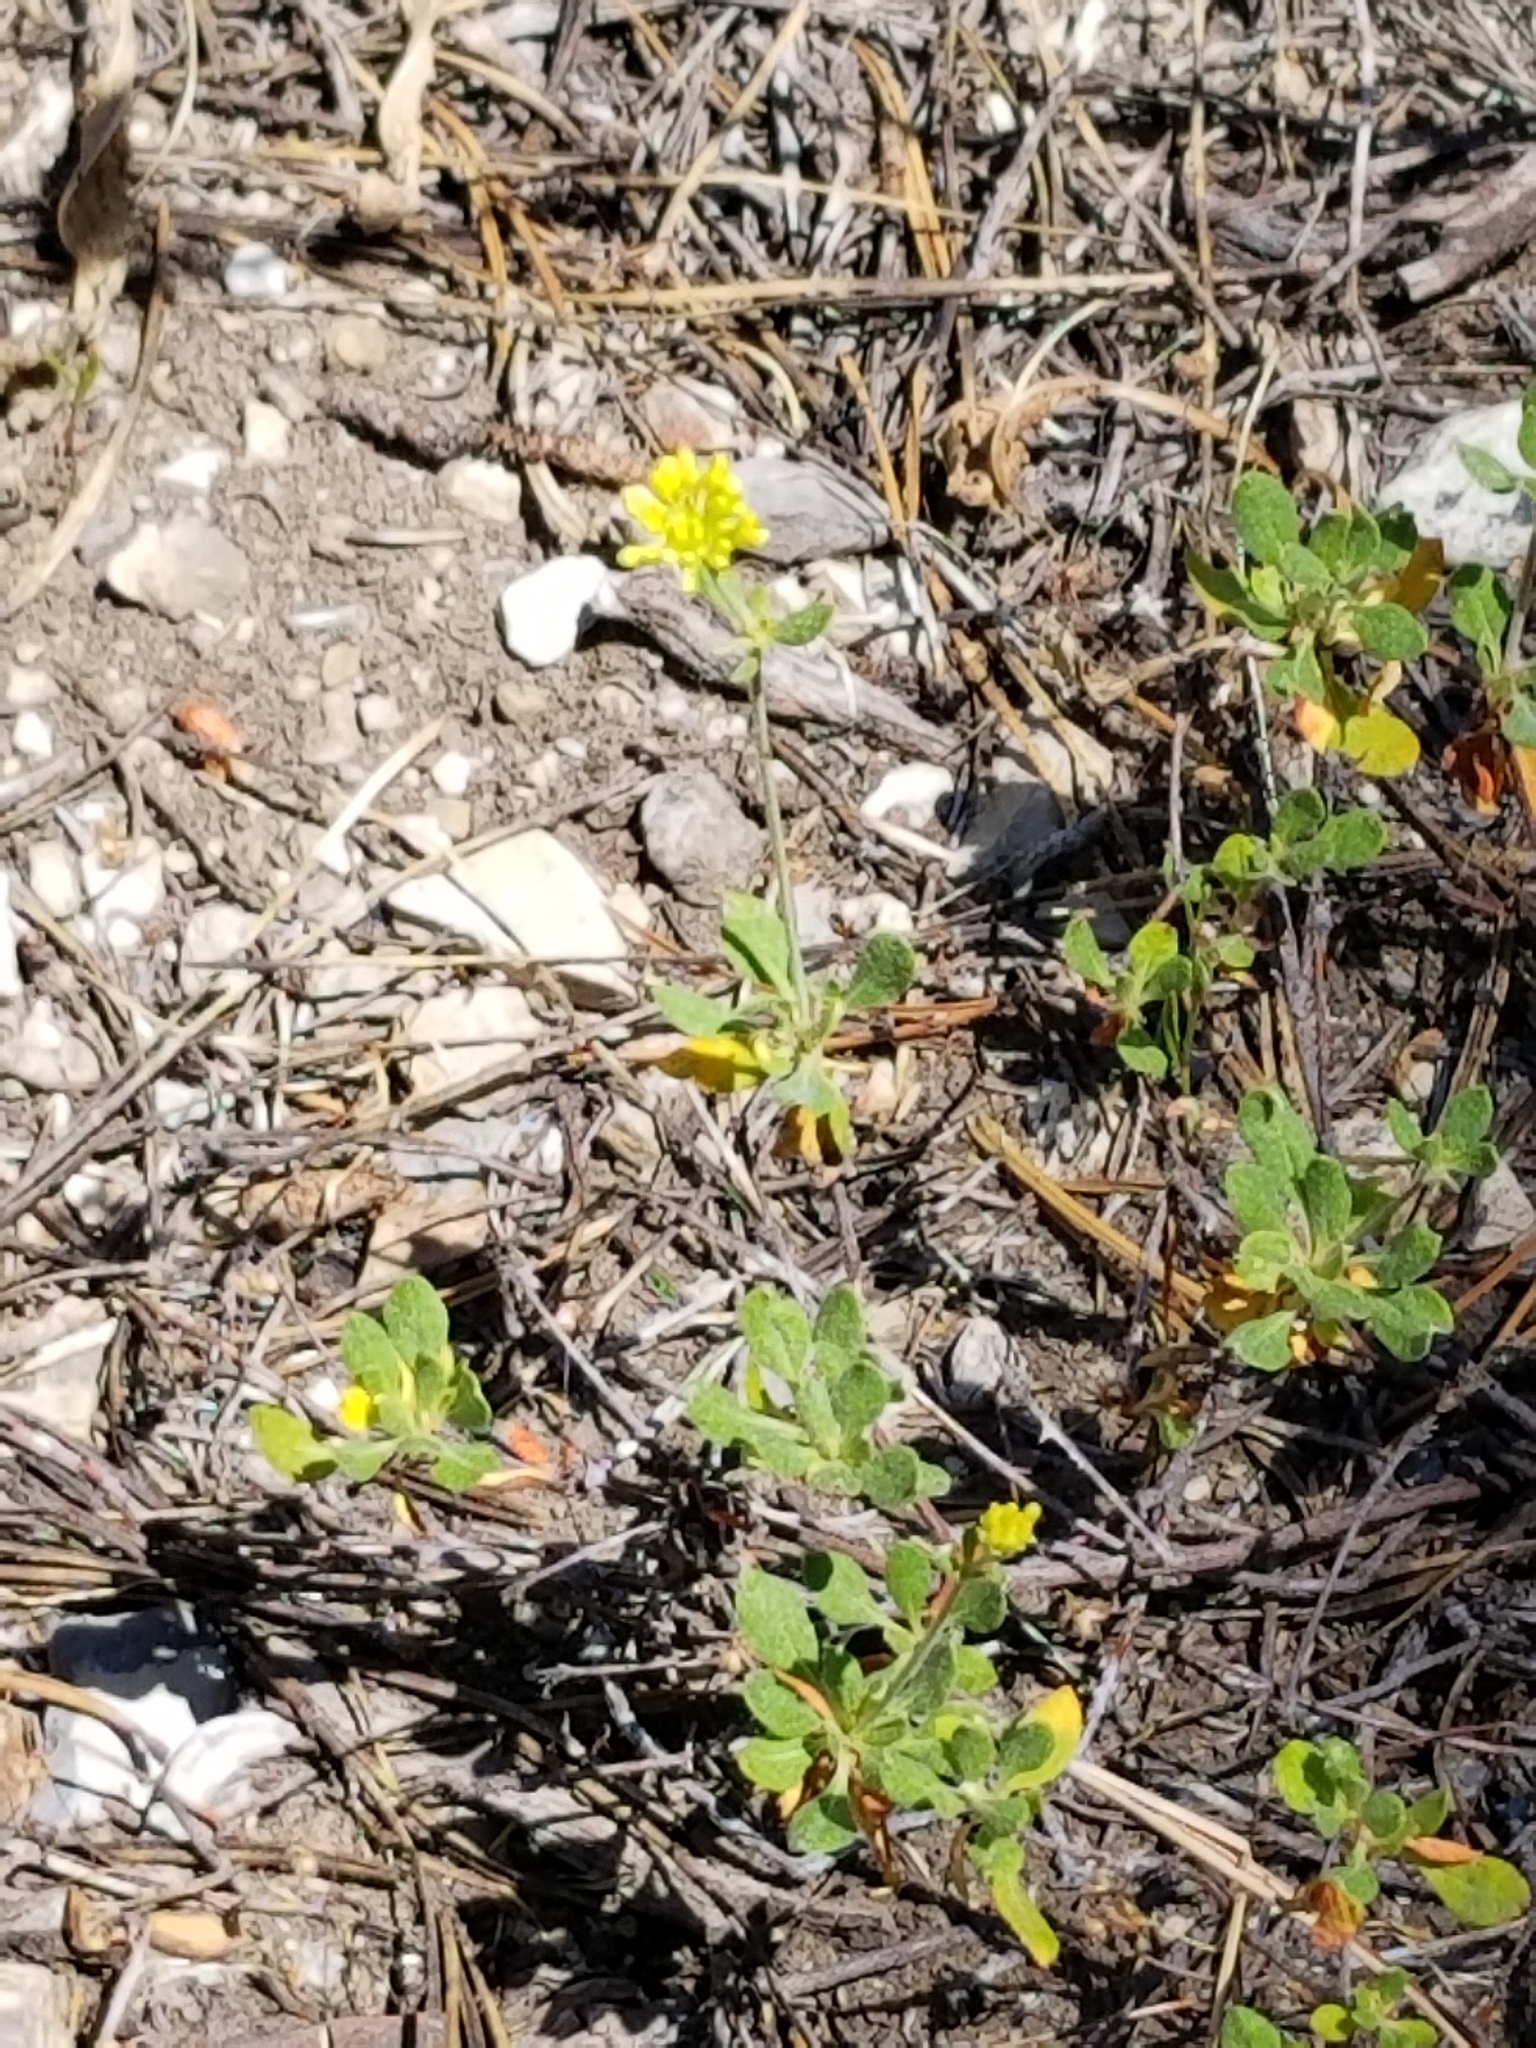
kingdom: Plantae
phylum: Tracheophyta
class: Magnoliopsida
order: Caryophyllales
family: Polygonaceae
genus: Eriogonum
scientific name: Eriogonum umbellatum
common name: Sulfur-buckwheat
